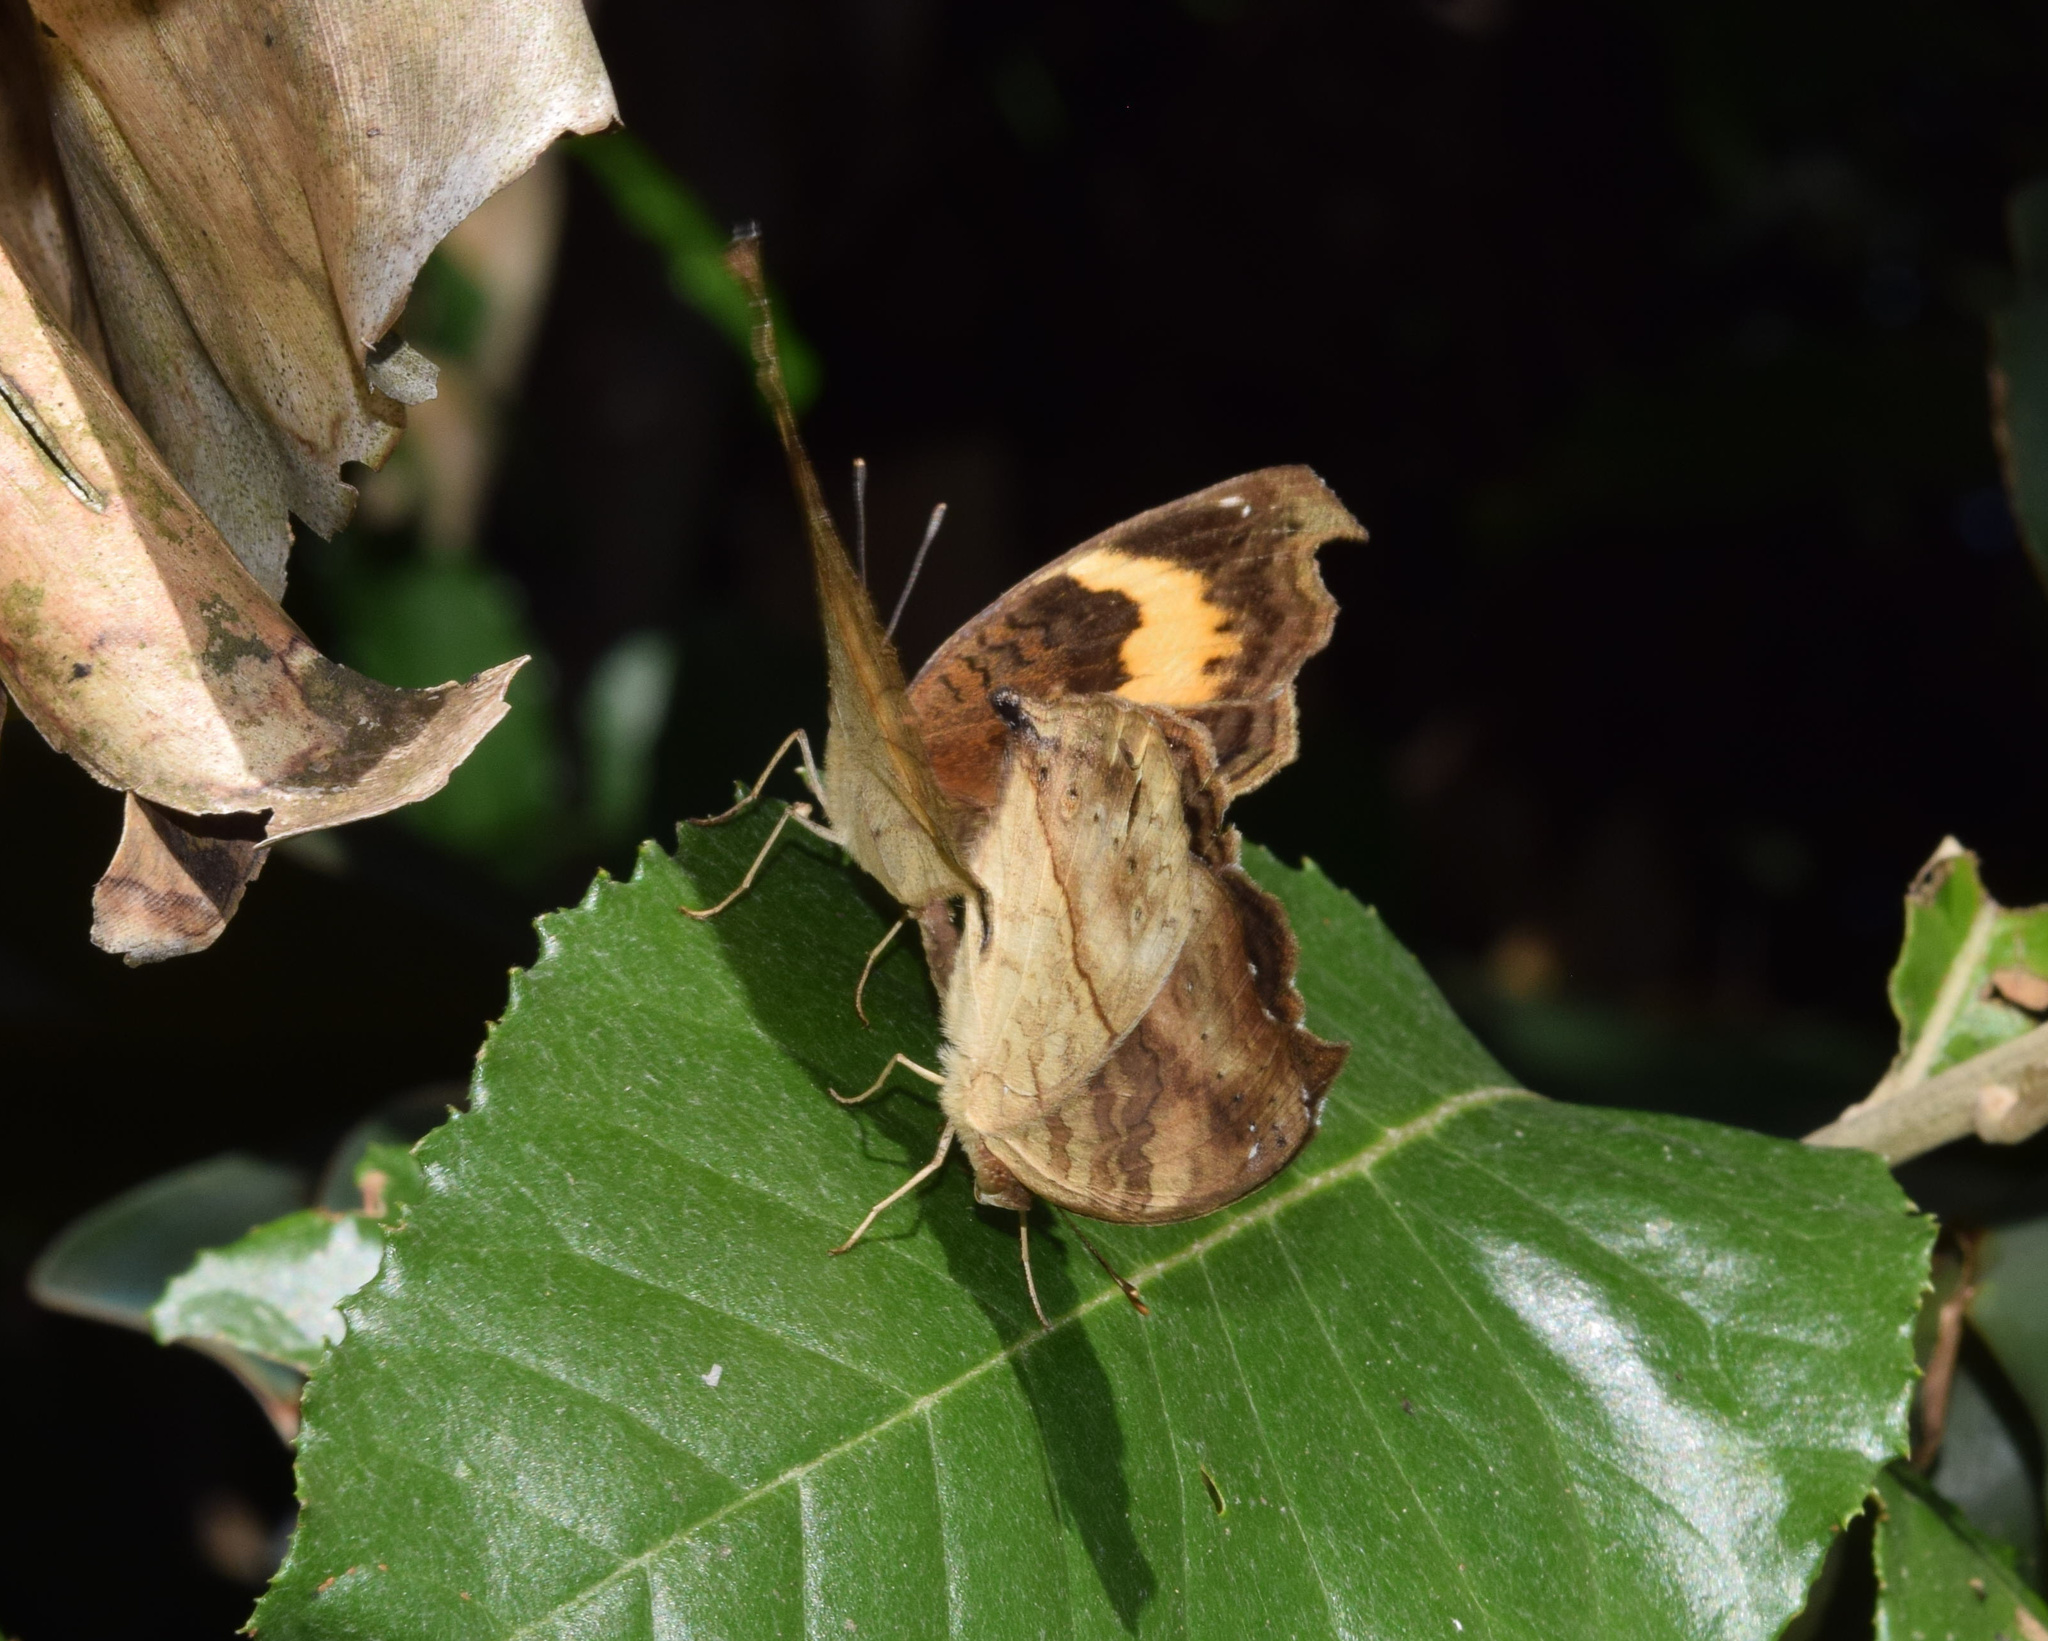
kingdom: Animalia
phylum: Arthropoda
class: Insecta
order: Lepidoptera
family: Nymphalidae
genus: Junonia
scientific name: Junonia terea
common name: Soldier pansy
